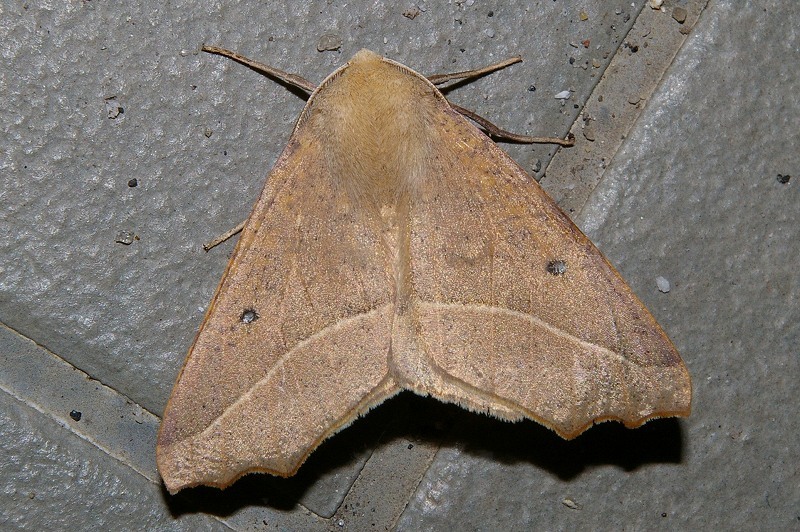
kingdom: Animalia
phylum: Arthropoda
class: Insecta
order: Lepidoptera
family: Geometridae
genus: Odontopera
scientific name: Odontopera arida
